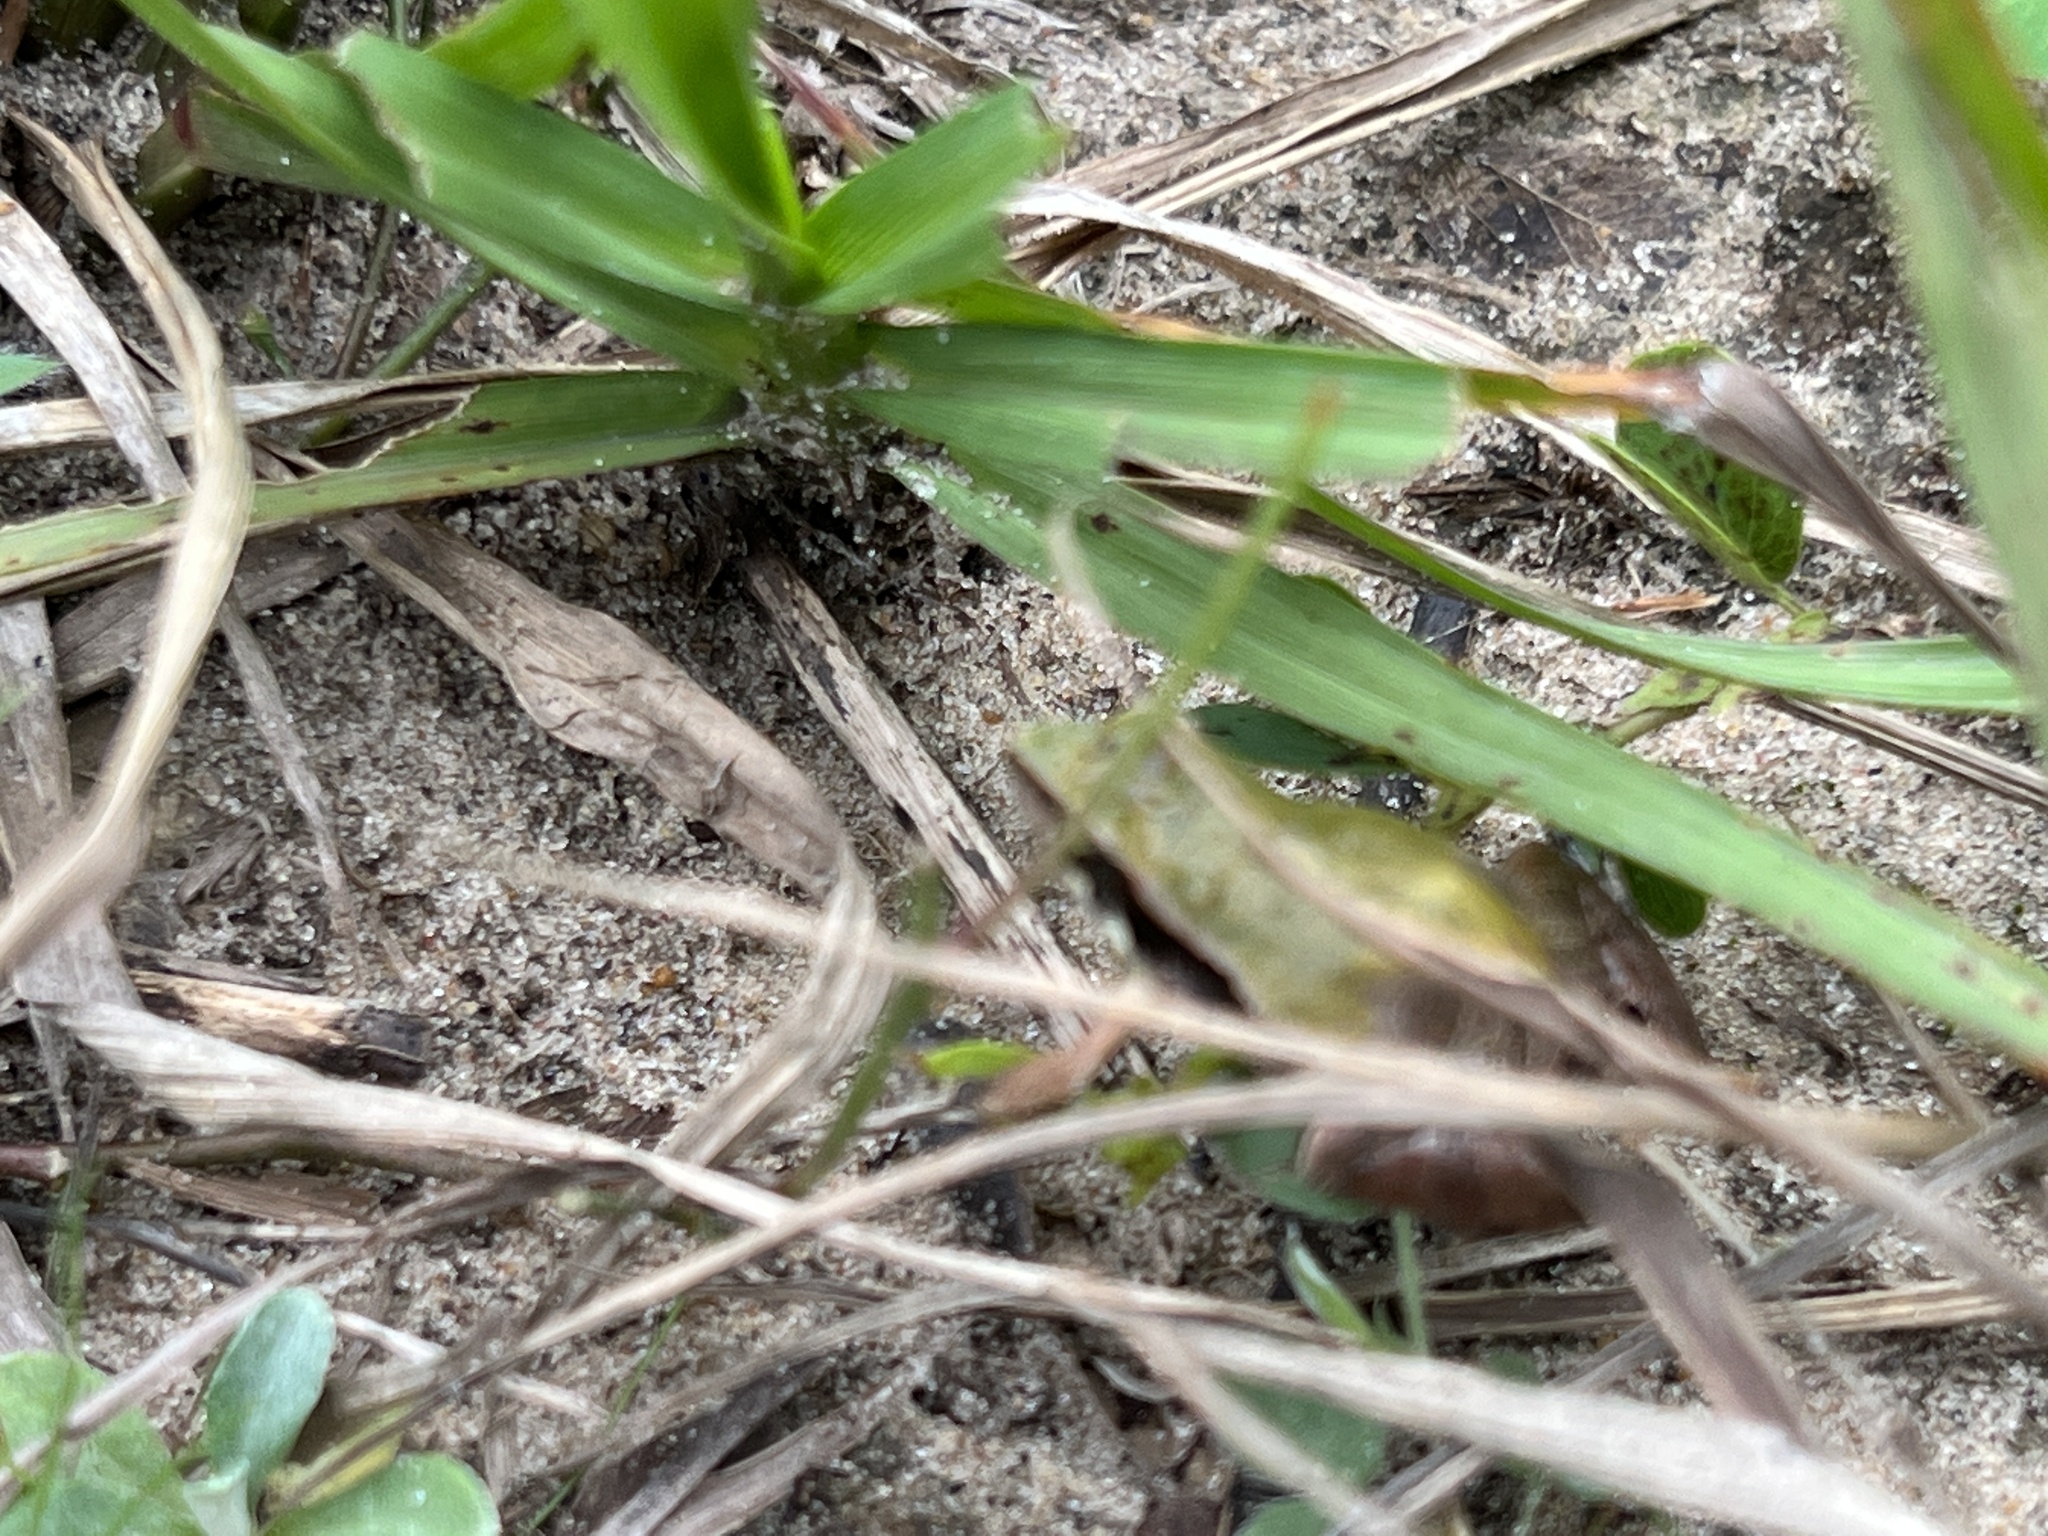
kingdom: Animalia
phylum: Chordata
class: Amphibia
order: Anura
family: Leptodactylidae
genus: Physalaemus
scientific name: Physalaemus cuvieri
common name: Barker frog
